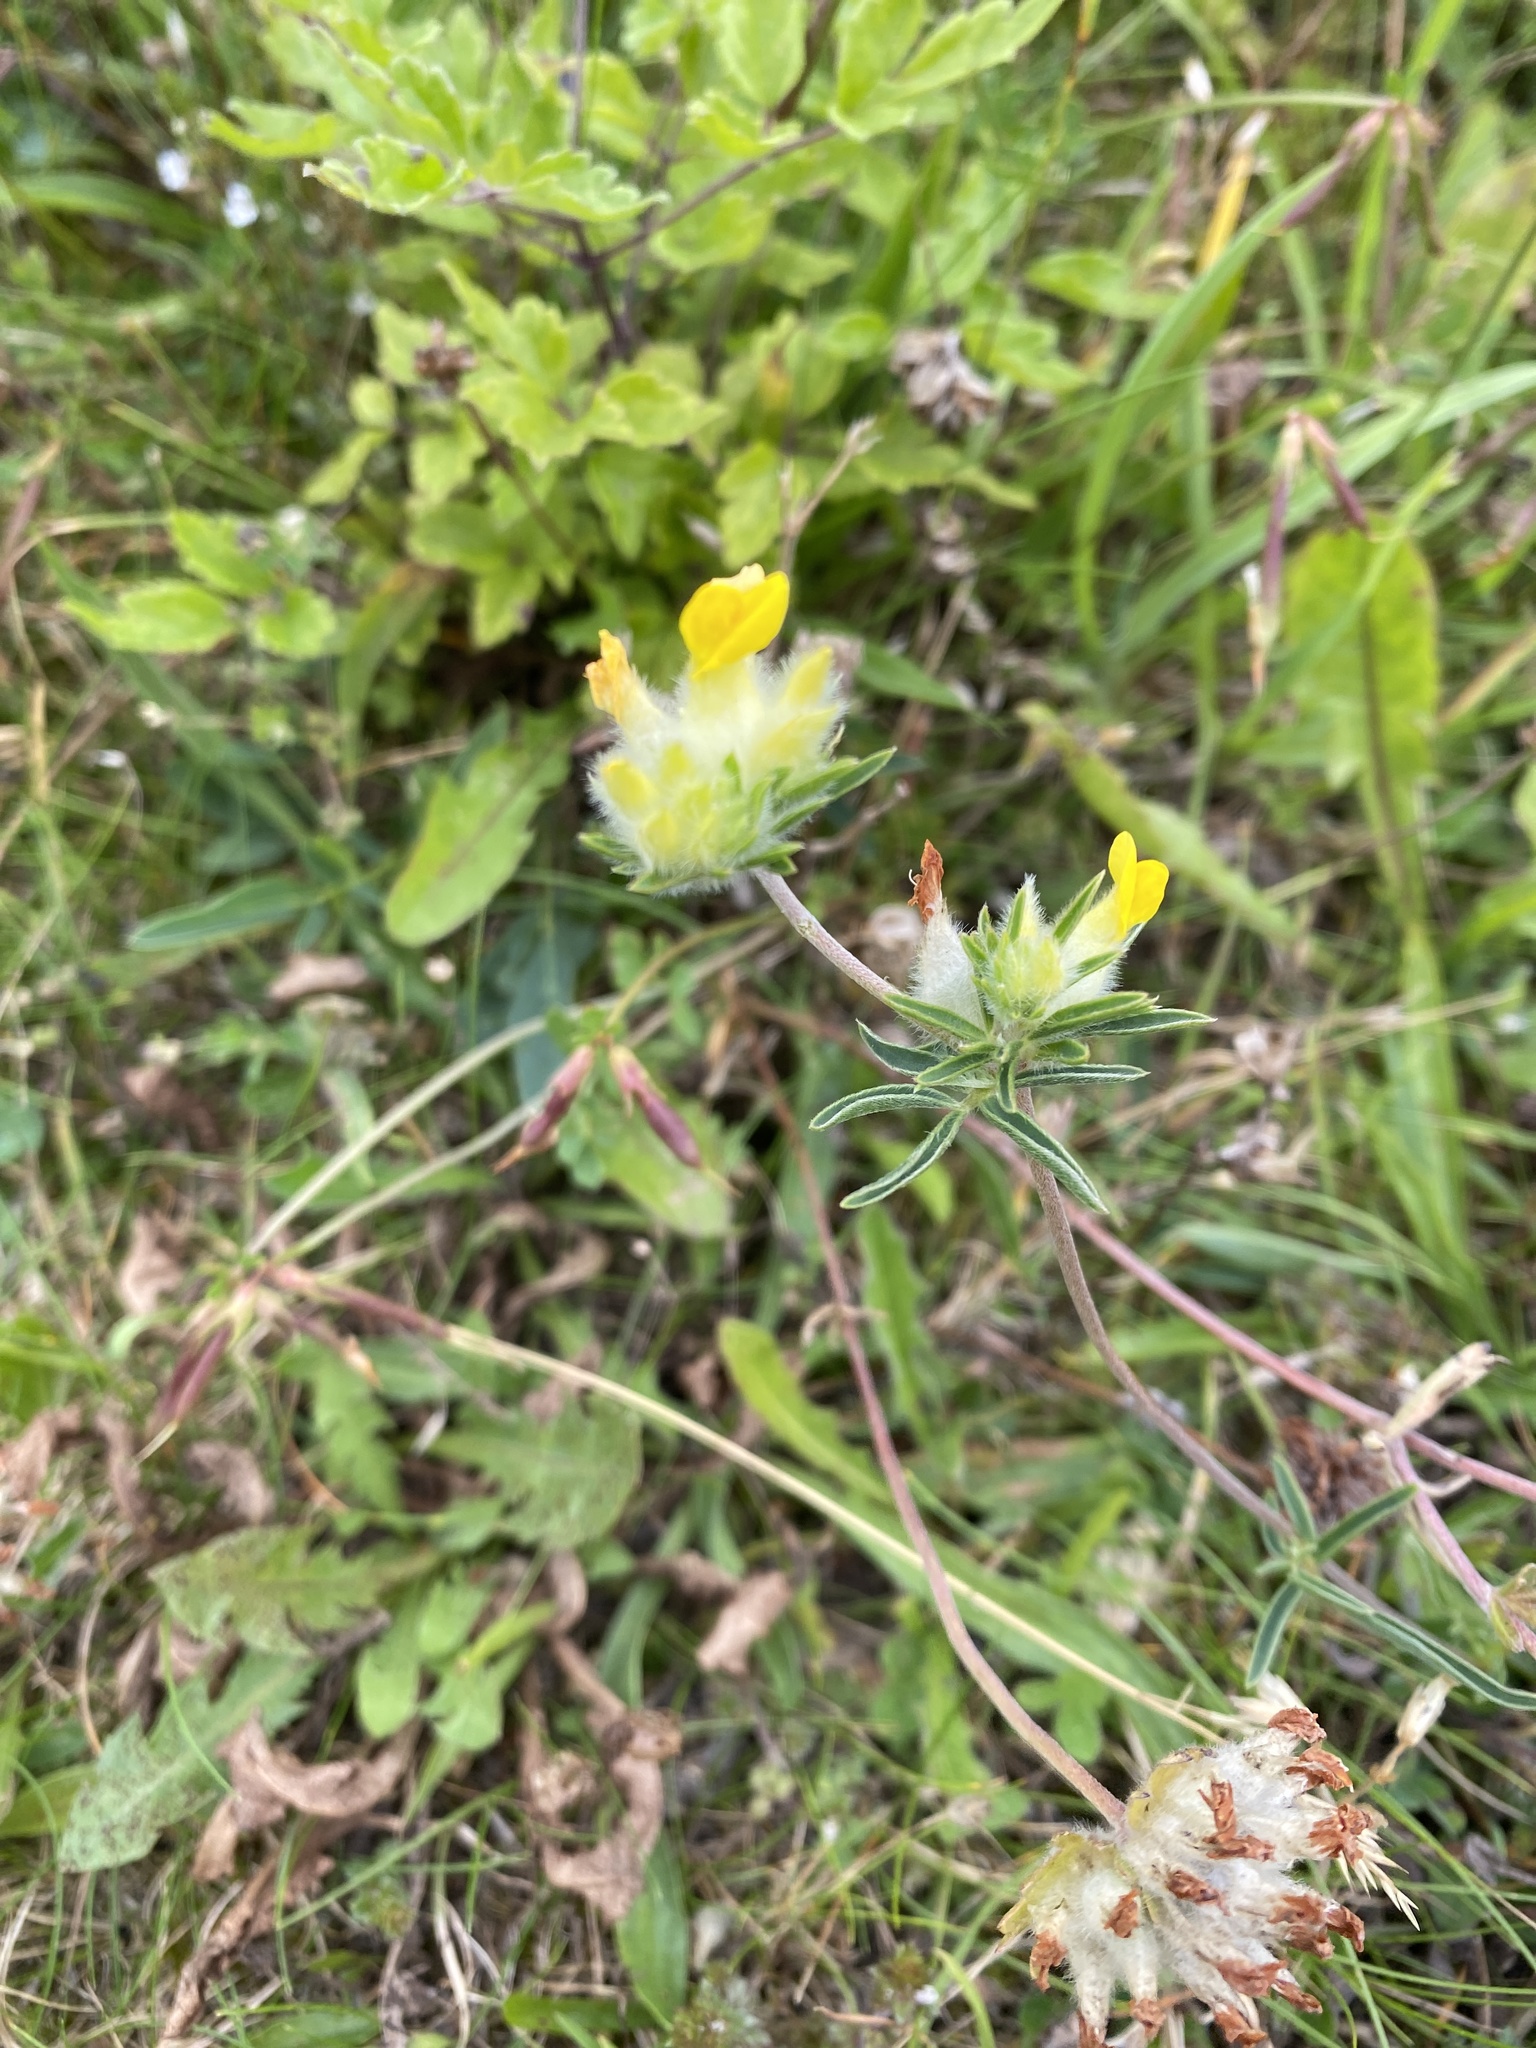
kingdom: Plantae
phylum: Tracheophyta
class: Magnoliopsida
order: Fabales
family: Fabaceae
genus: Anthyllis
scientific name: Anthyllis vulneraria
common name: Kidney vetch
